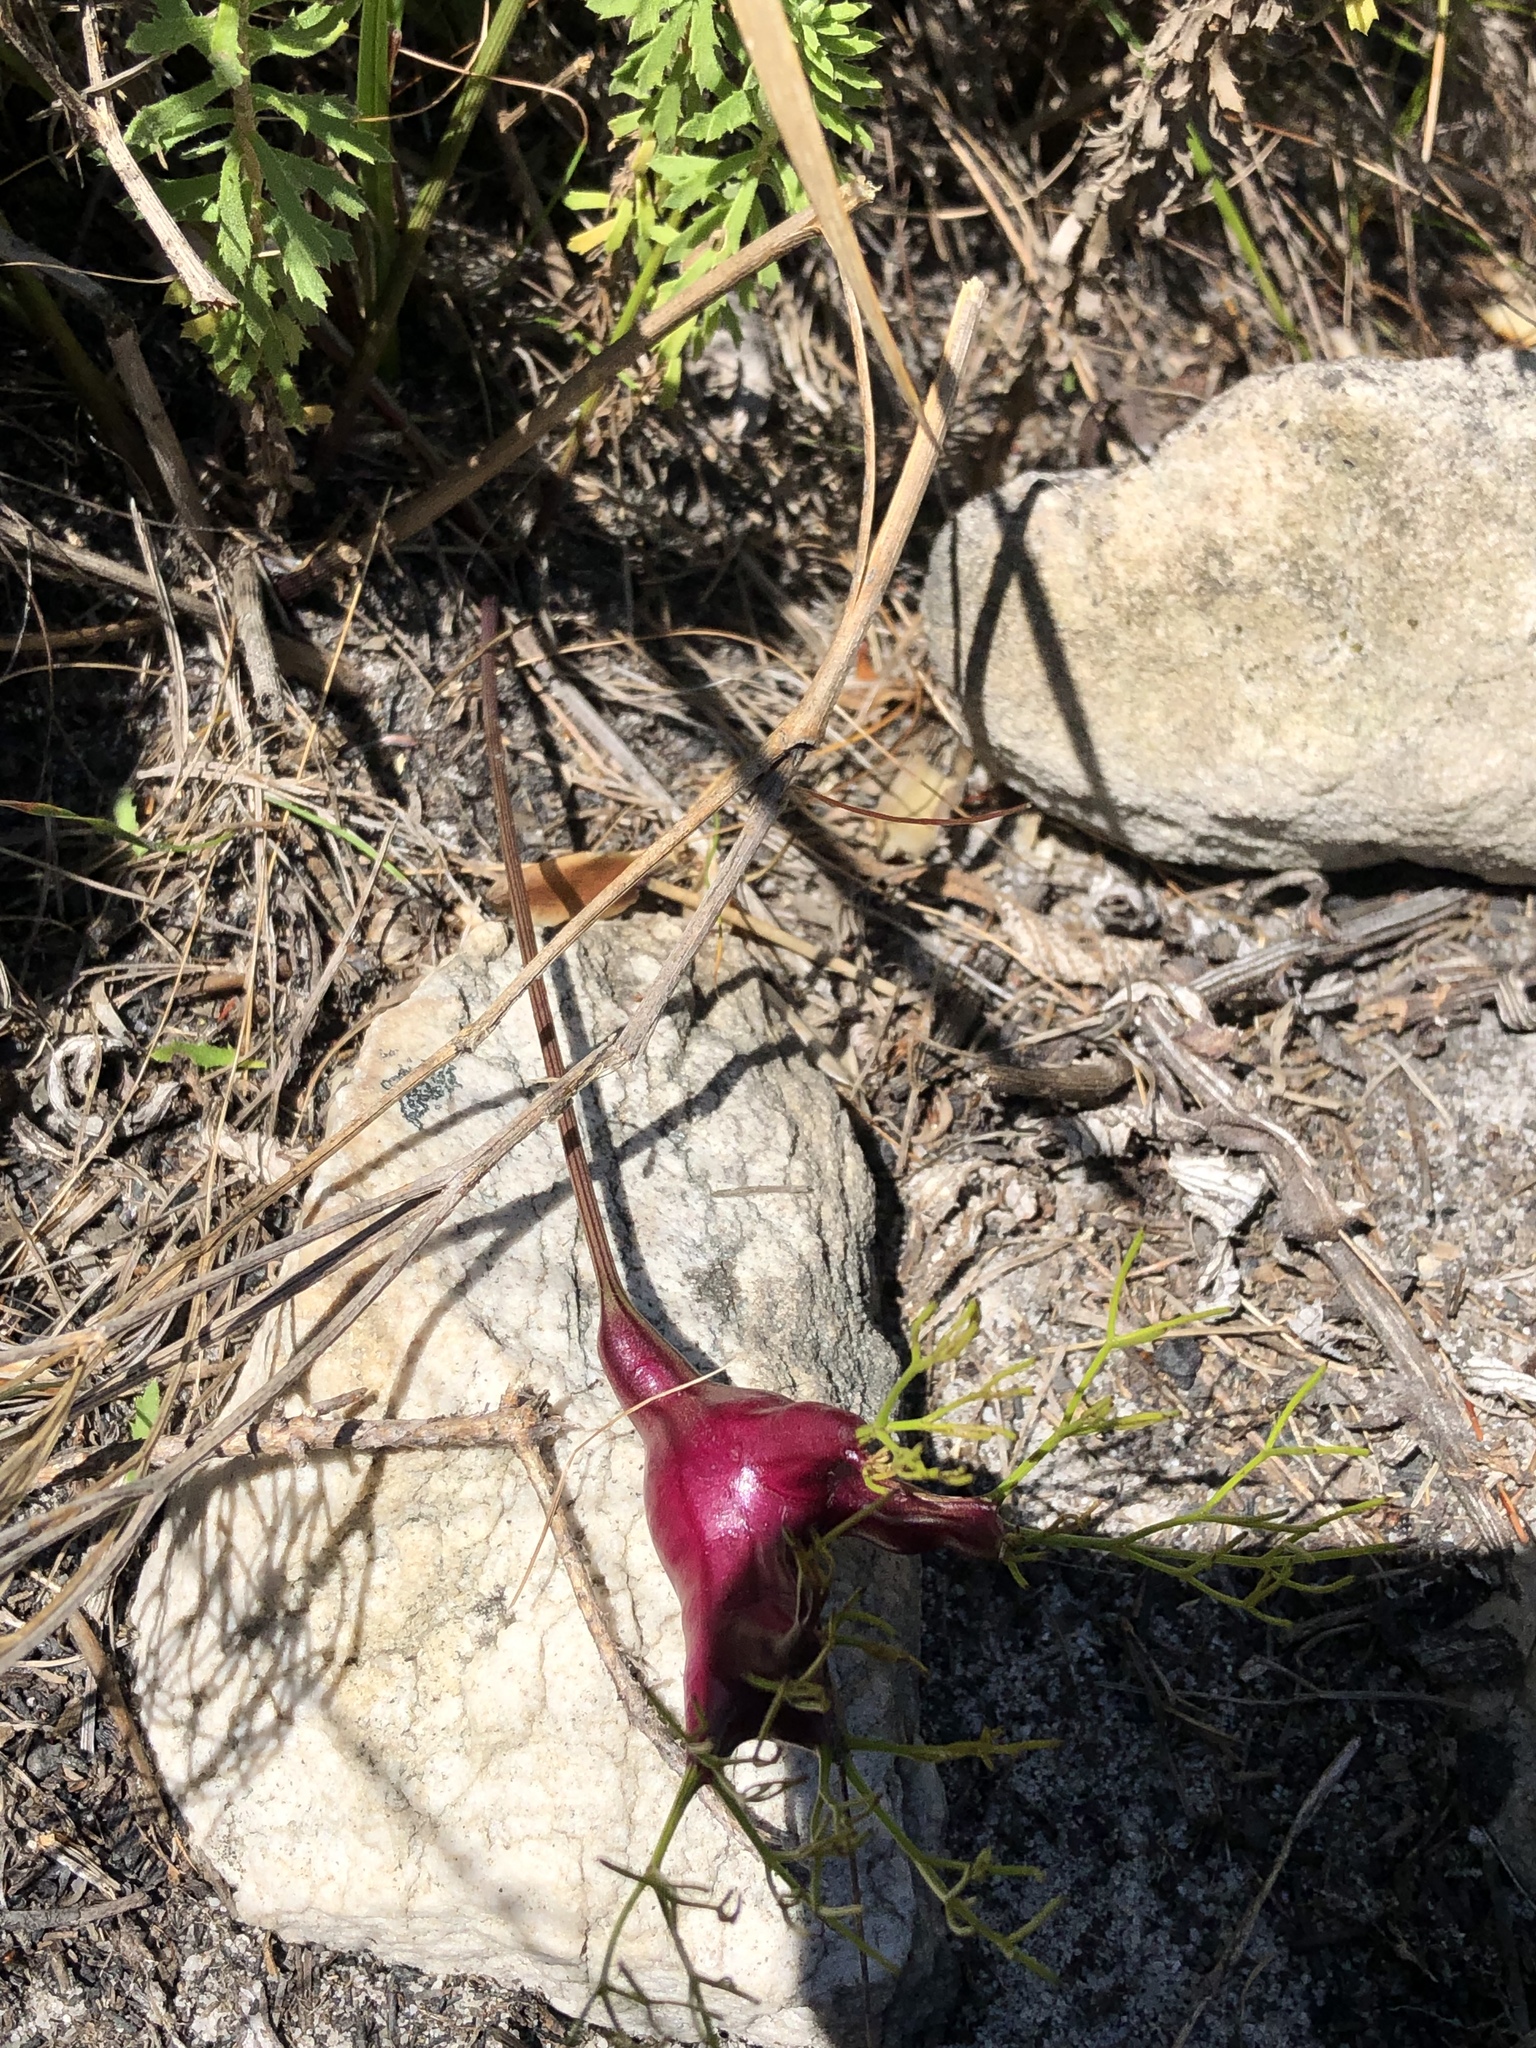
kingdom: Plantae
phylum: Tracheophyta
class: Magnoliopsida
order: Apiales
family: Apiaceae
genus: Nanobubon
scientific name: Nanobubon strictum
